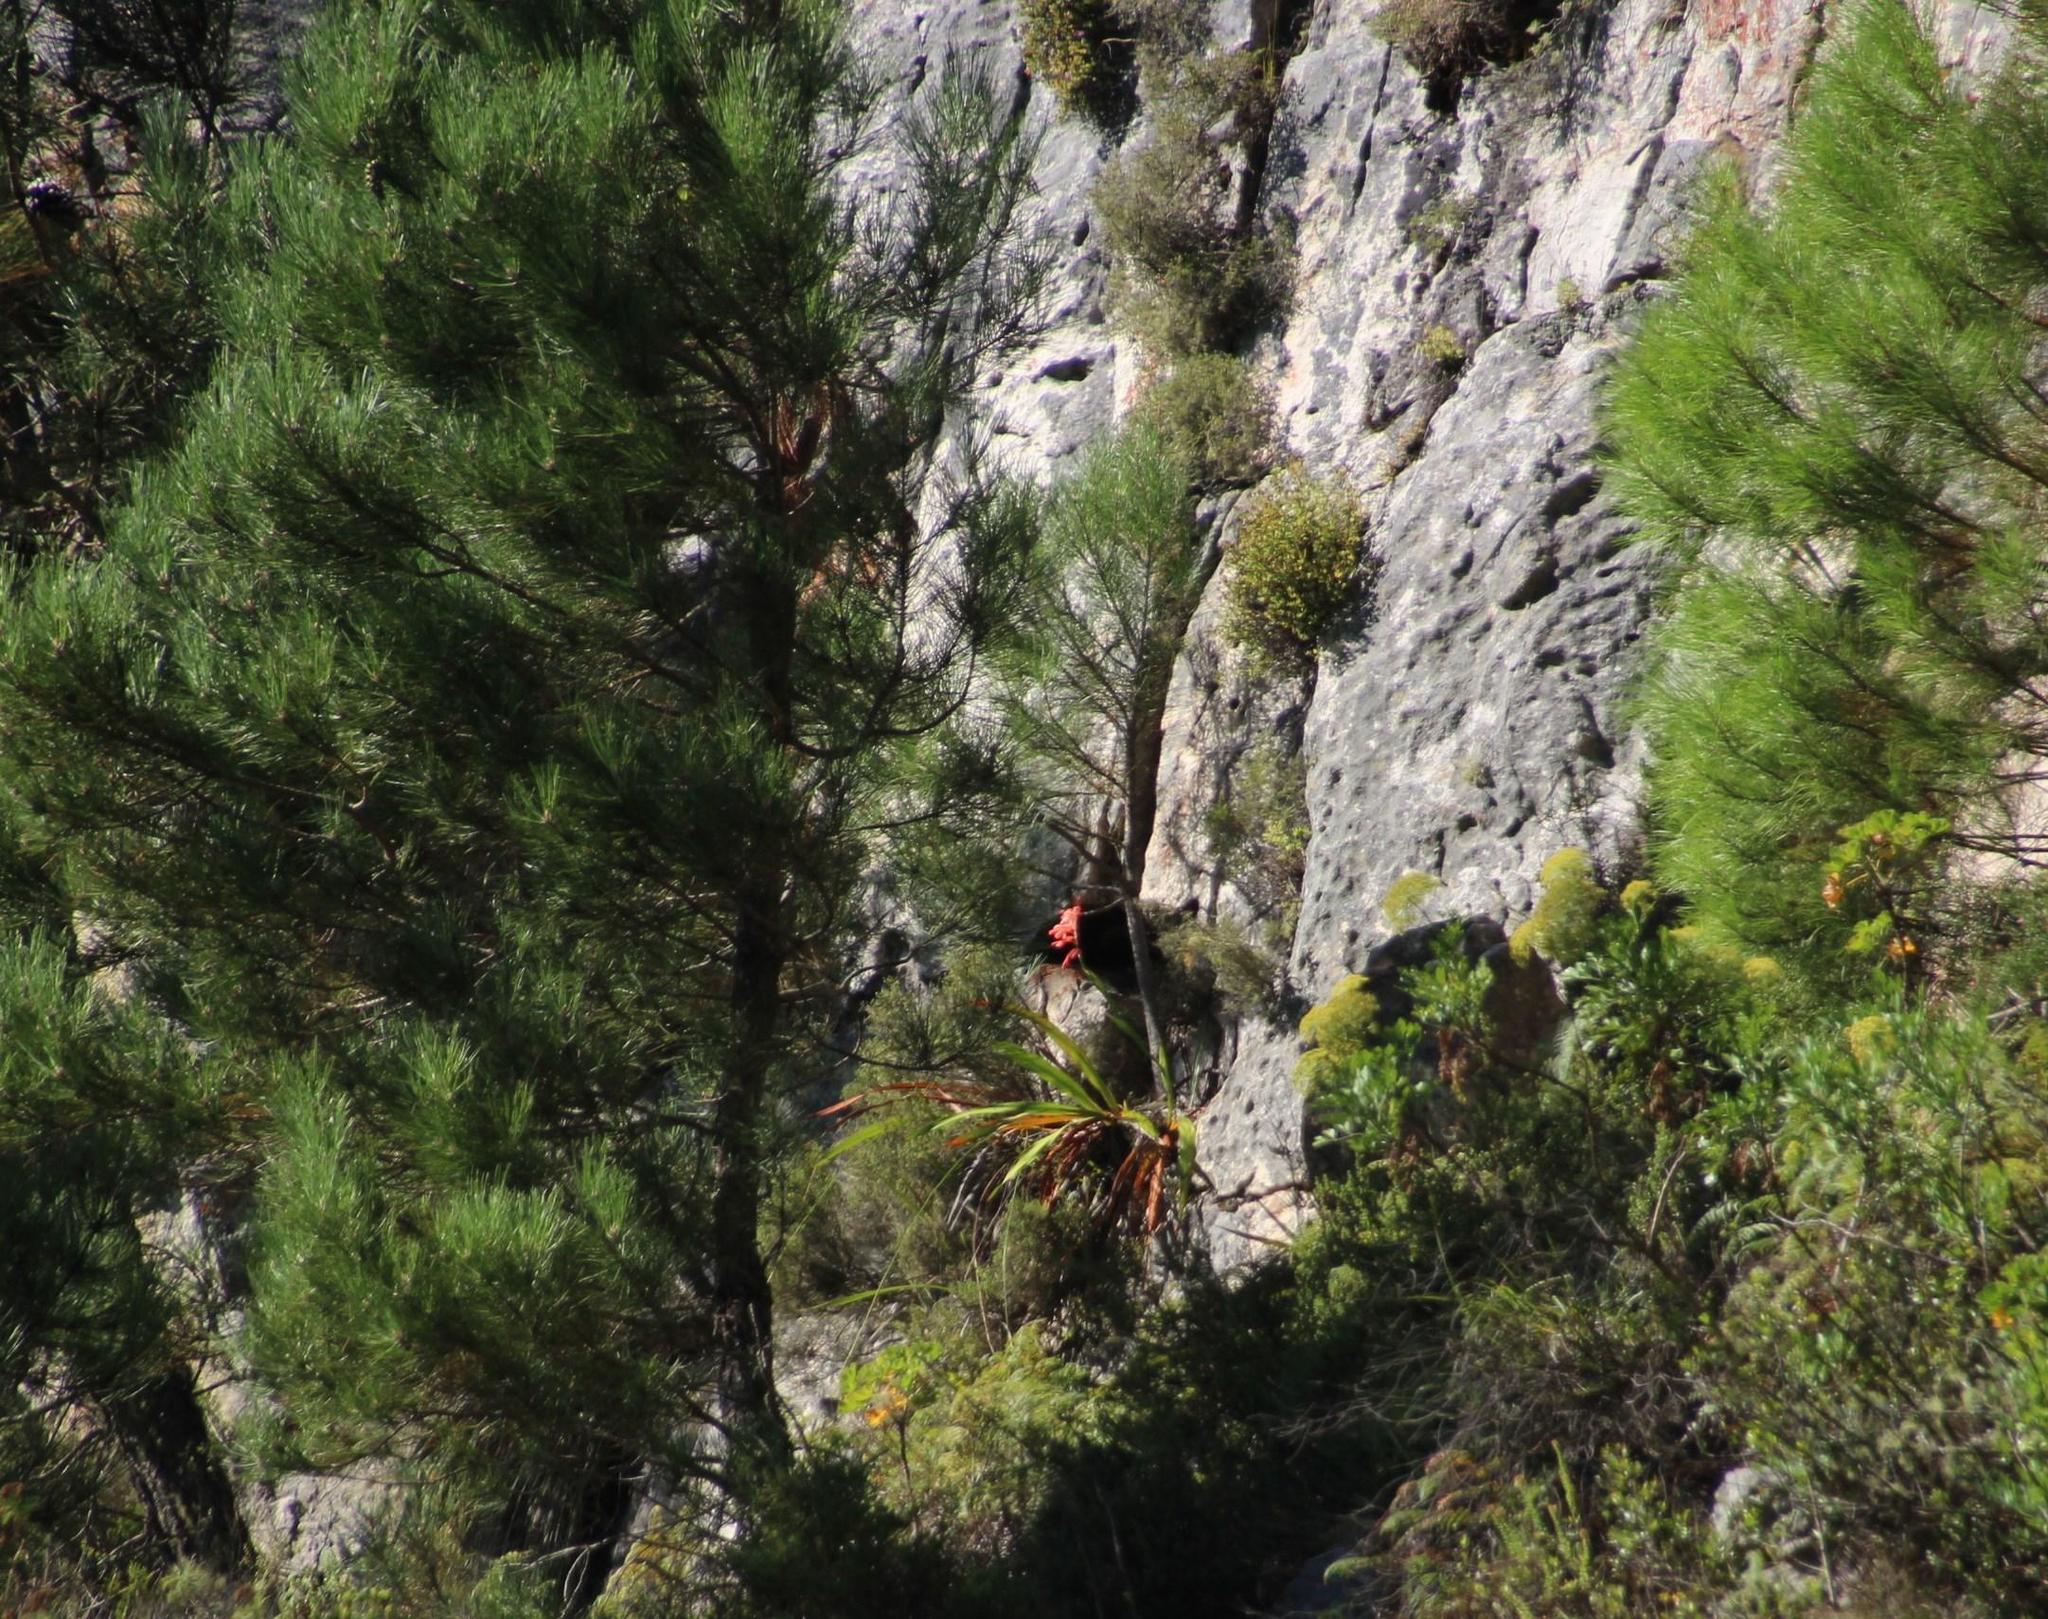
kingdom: Plantae
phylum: Tracheophyta
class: Pinopsida
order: Pinales
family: Pinaceae
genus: Pinus
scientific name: Pinus pinaster
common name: Maritime pine
